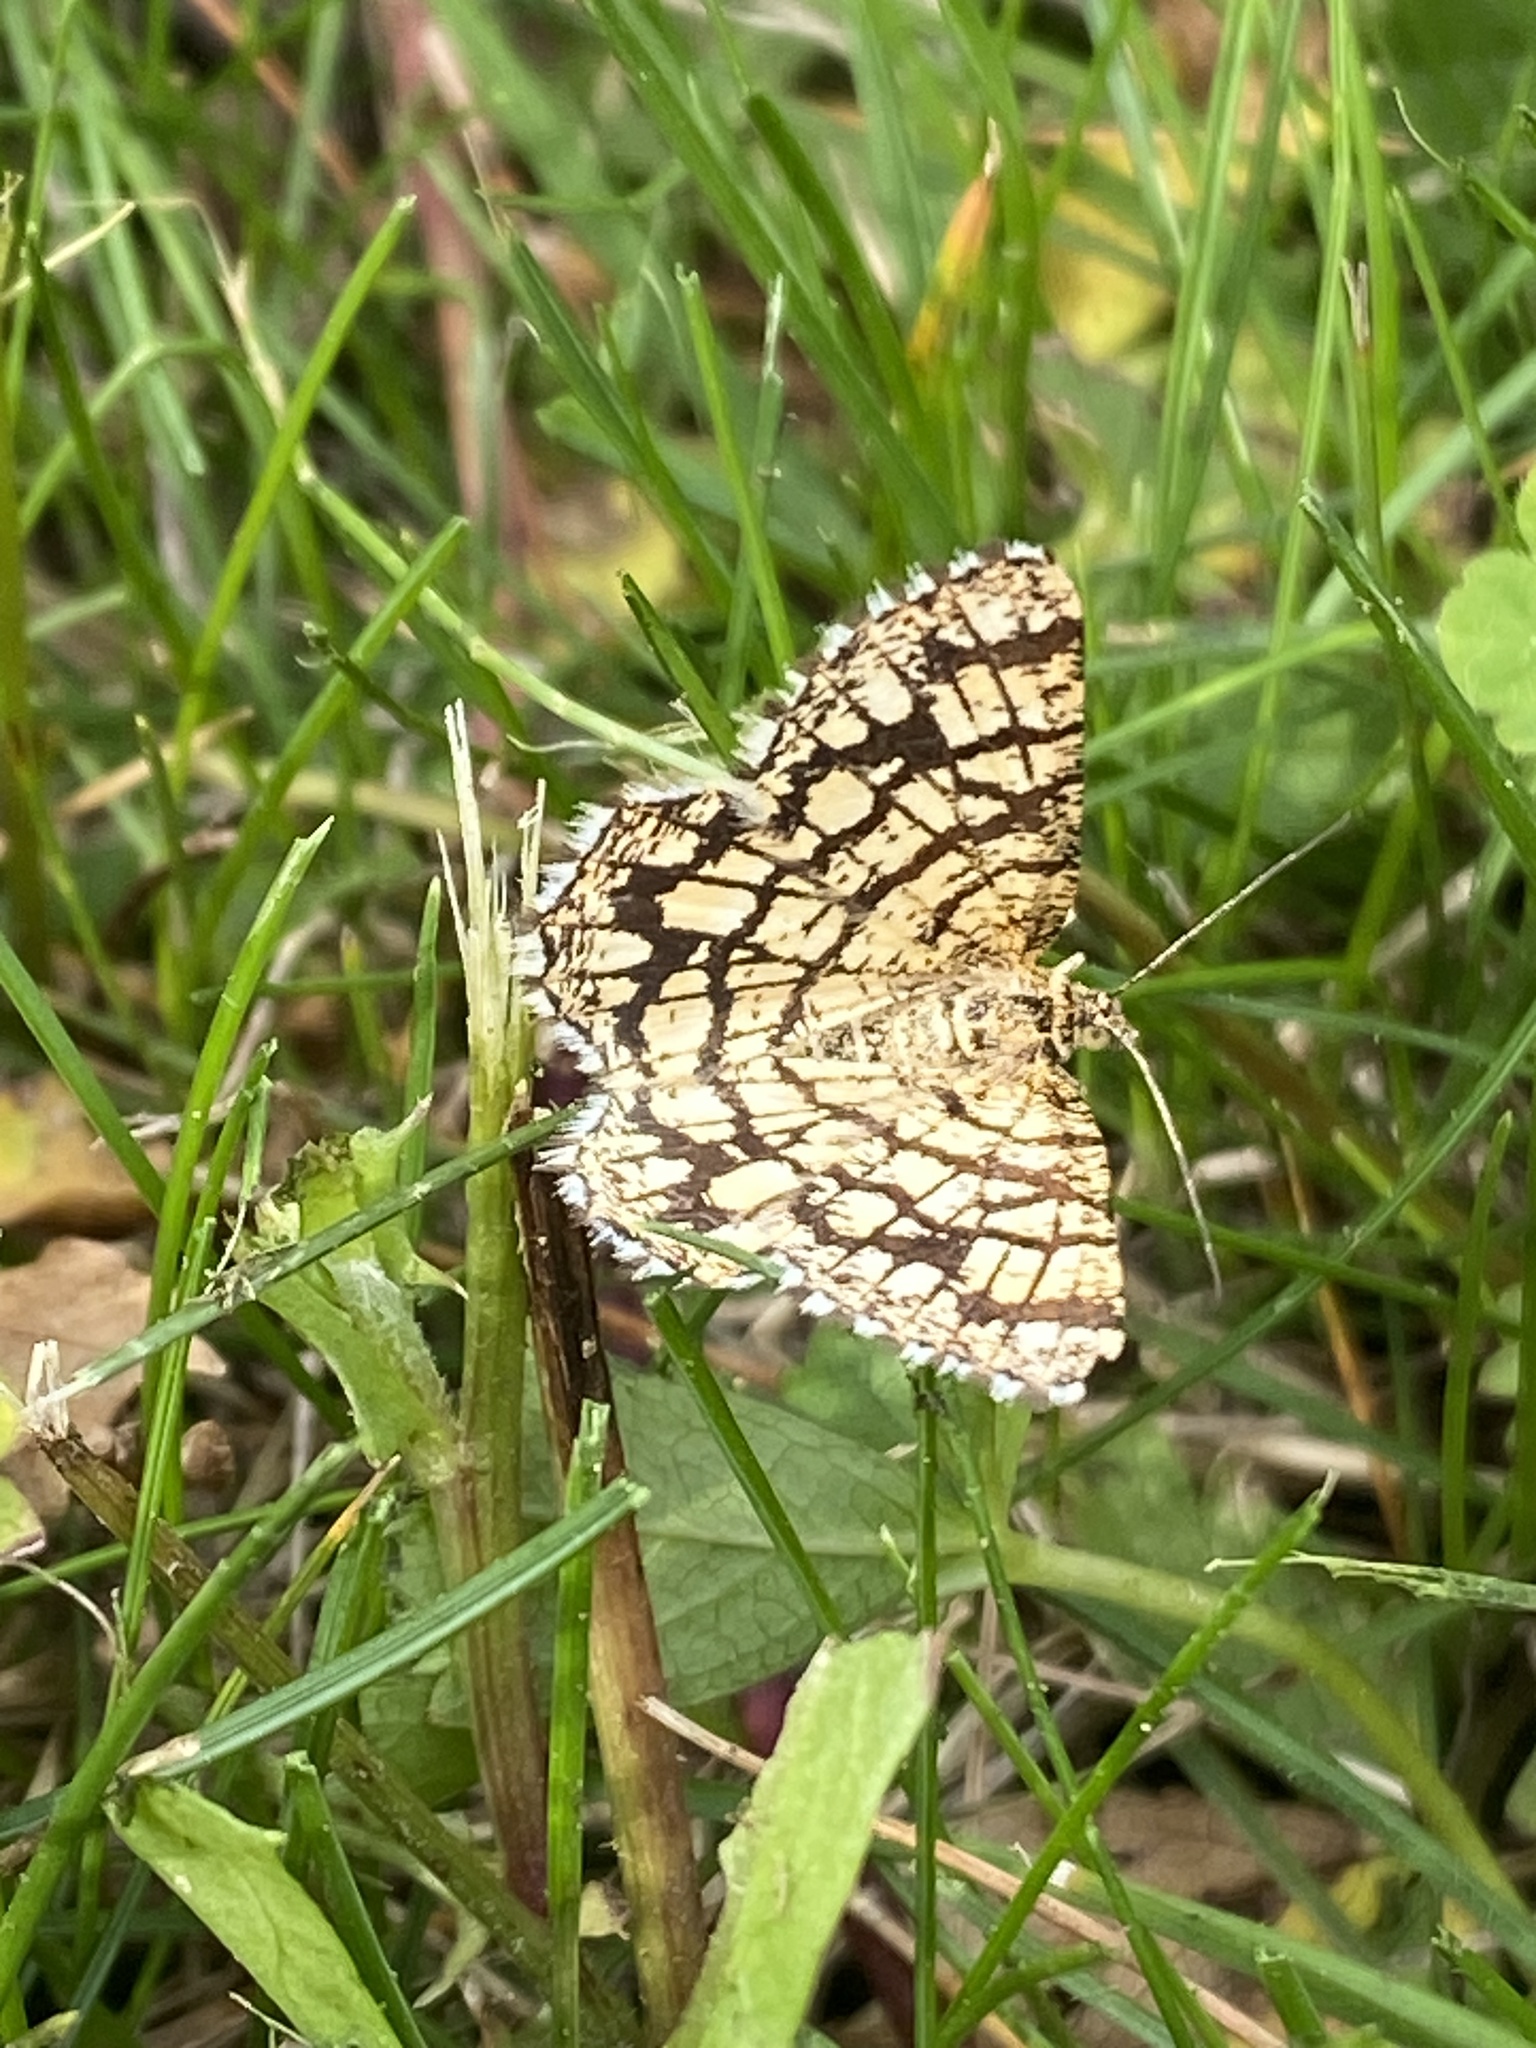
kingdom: Animalia
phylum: Arthropoda
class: Insecta
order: Lepidoptera
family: Geometridae
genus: Chiasmia
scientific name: Chiasmia clathrata
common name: Latticed heath
